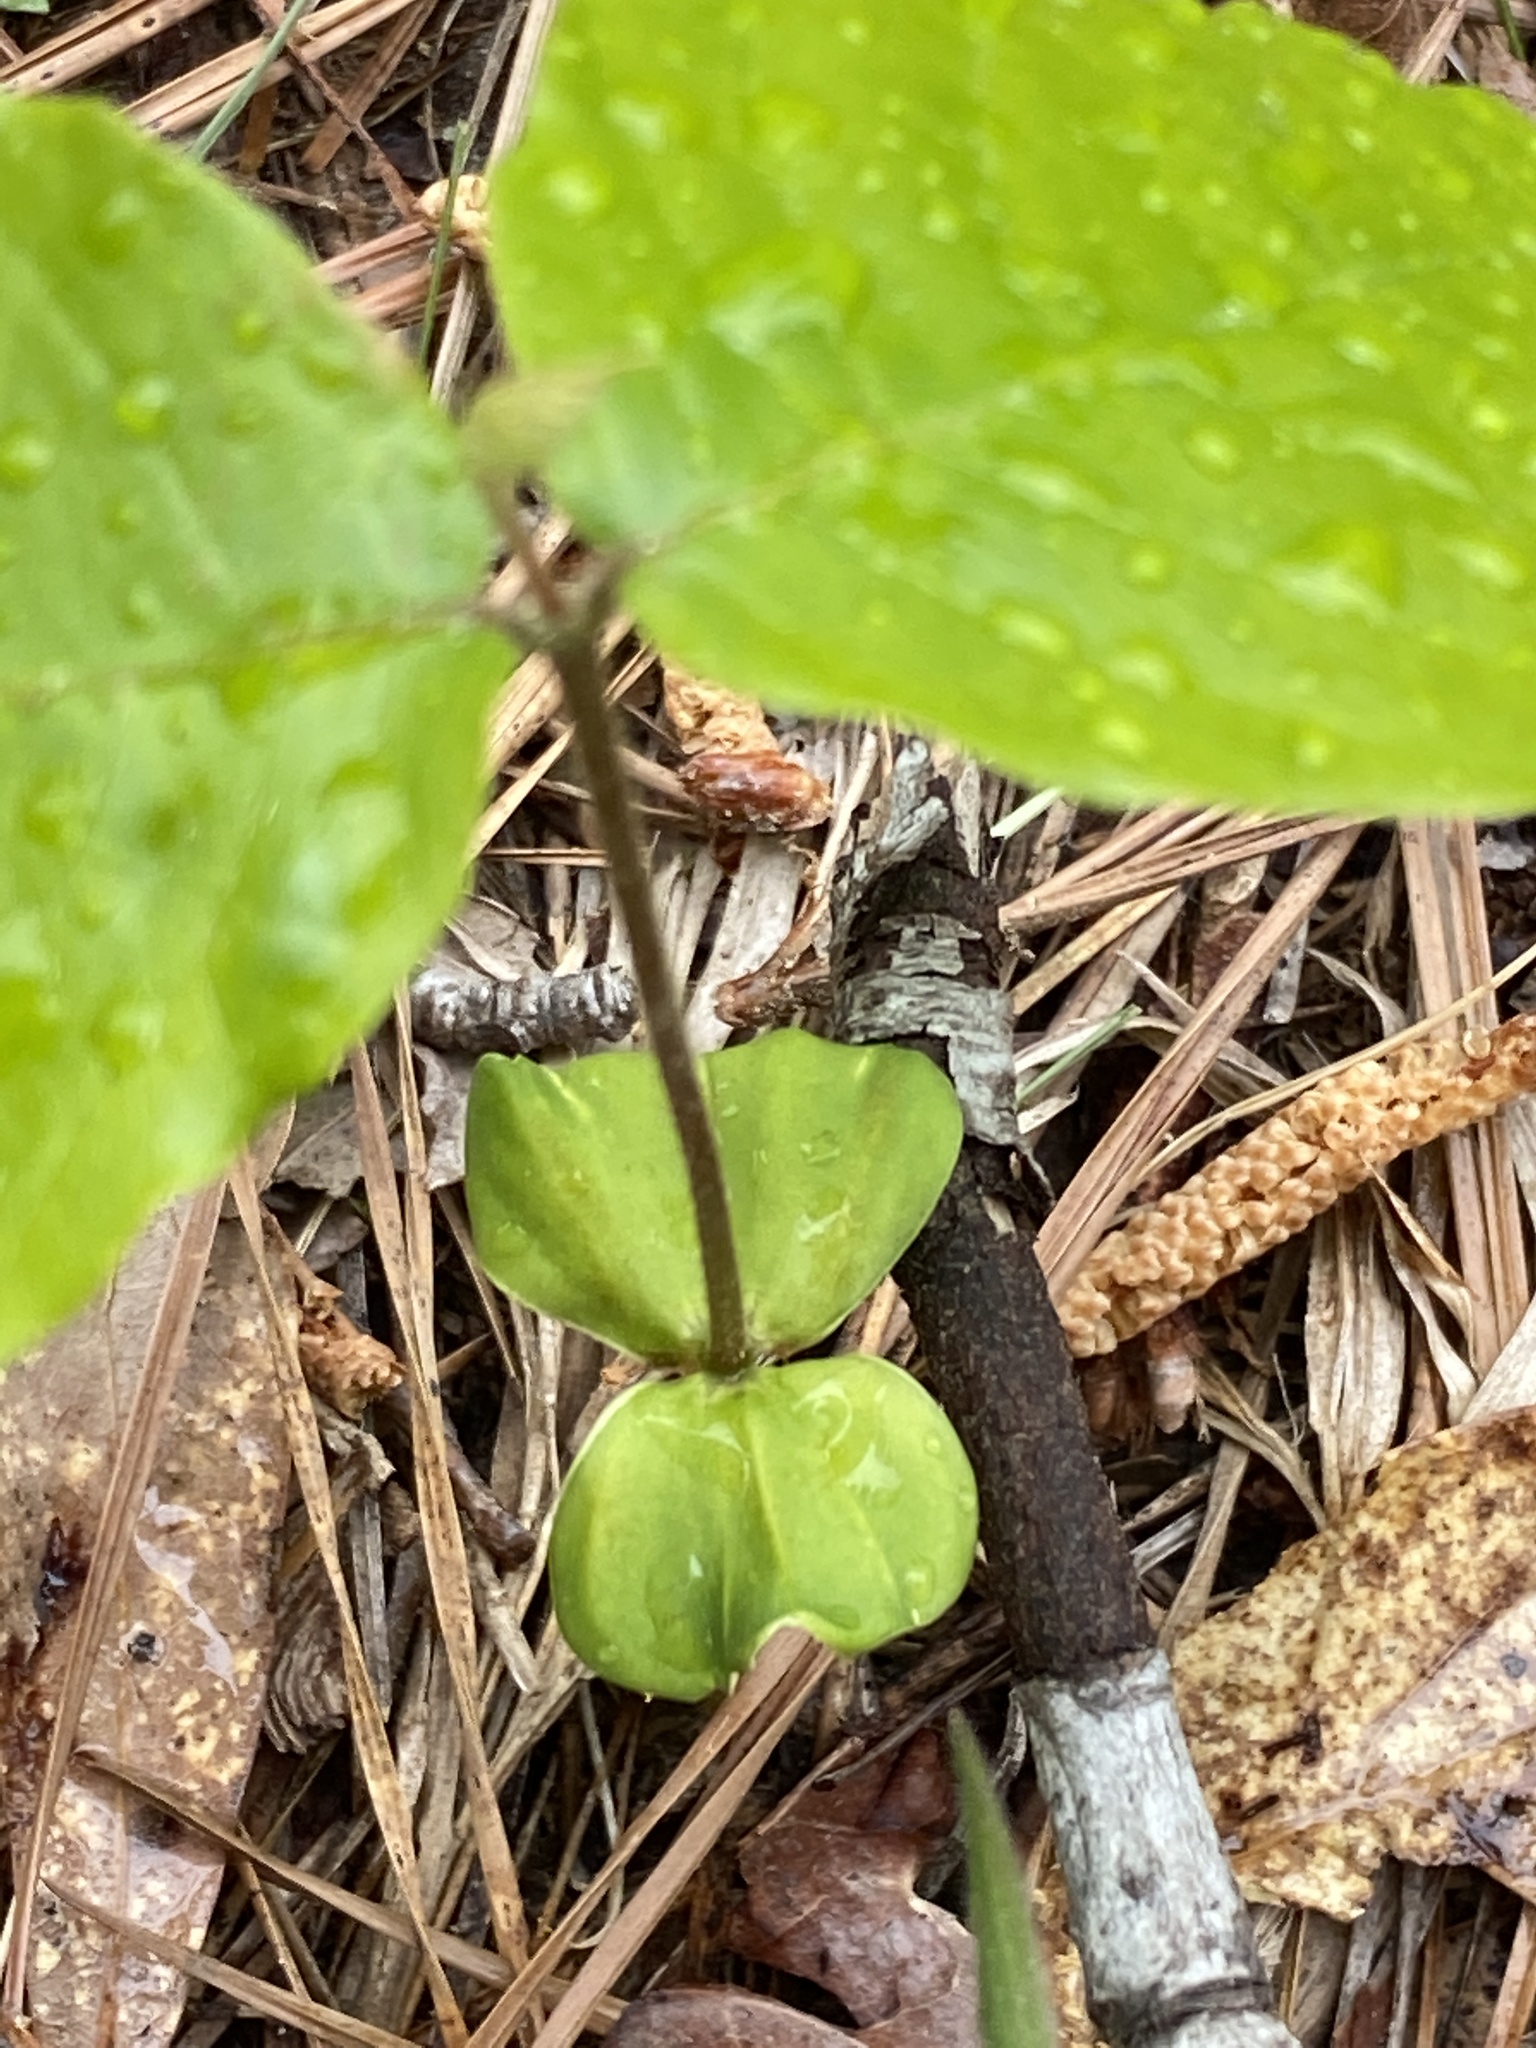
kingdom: Plantae
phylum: Tracheophyta
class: Magnoliopsida
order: Fagales
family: Fagaceae
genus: Fagus
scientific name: Fagus grandifolia
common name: American beech
